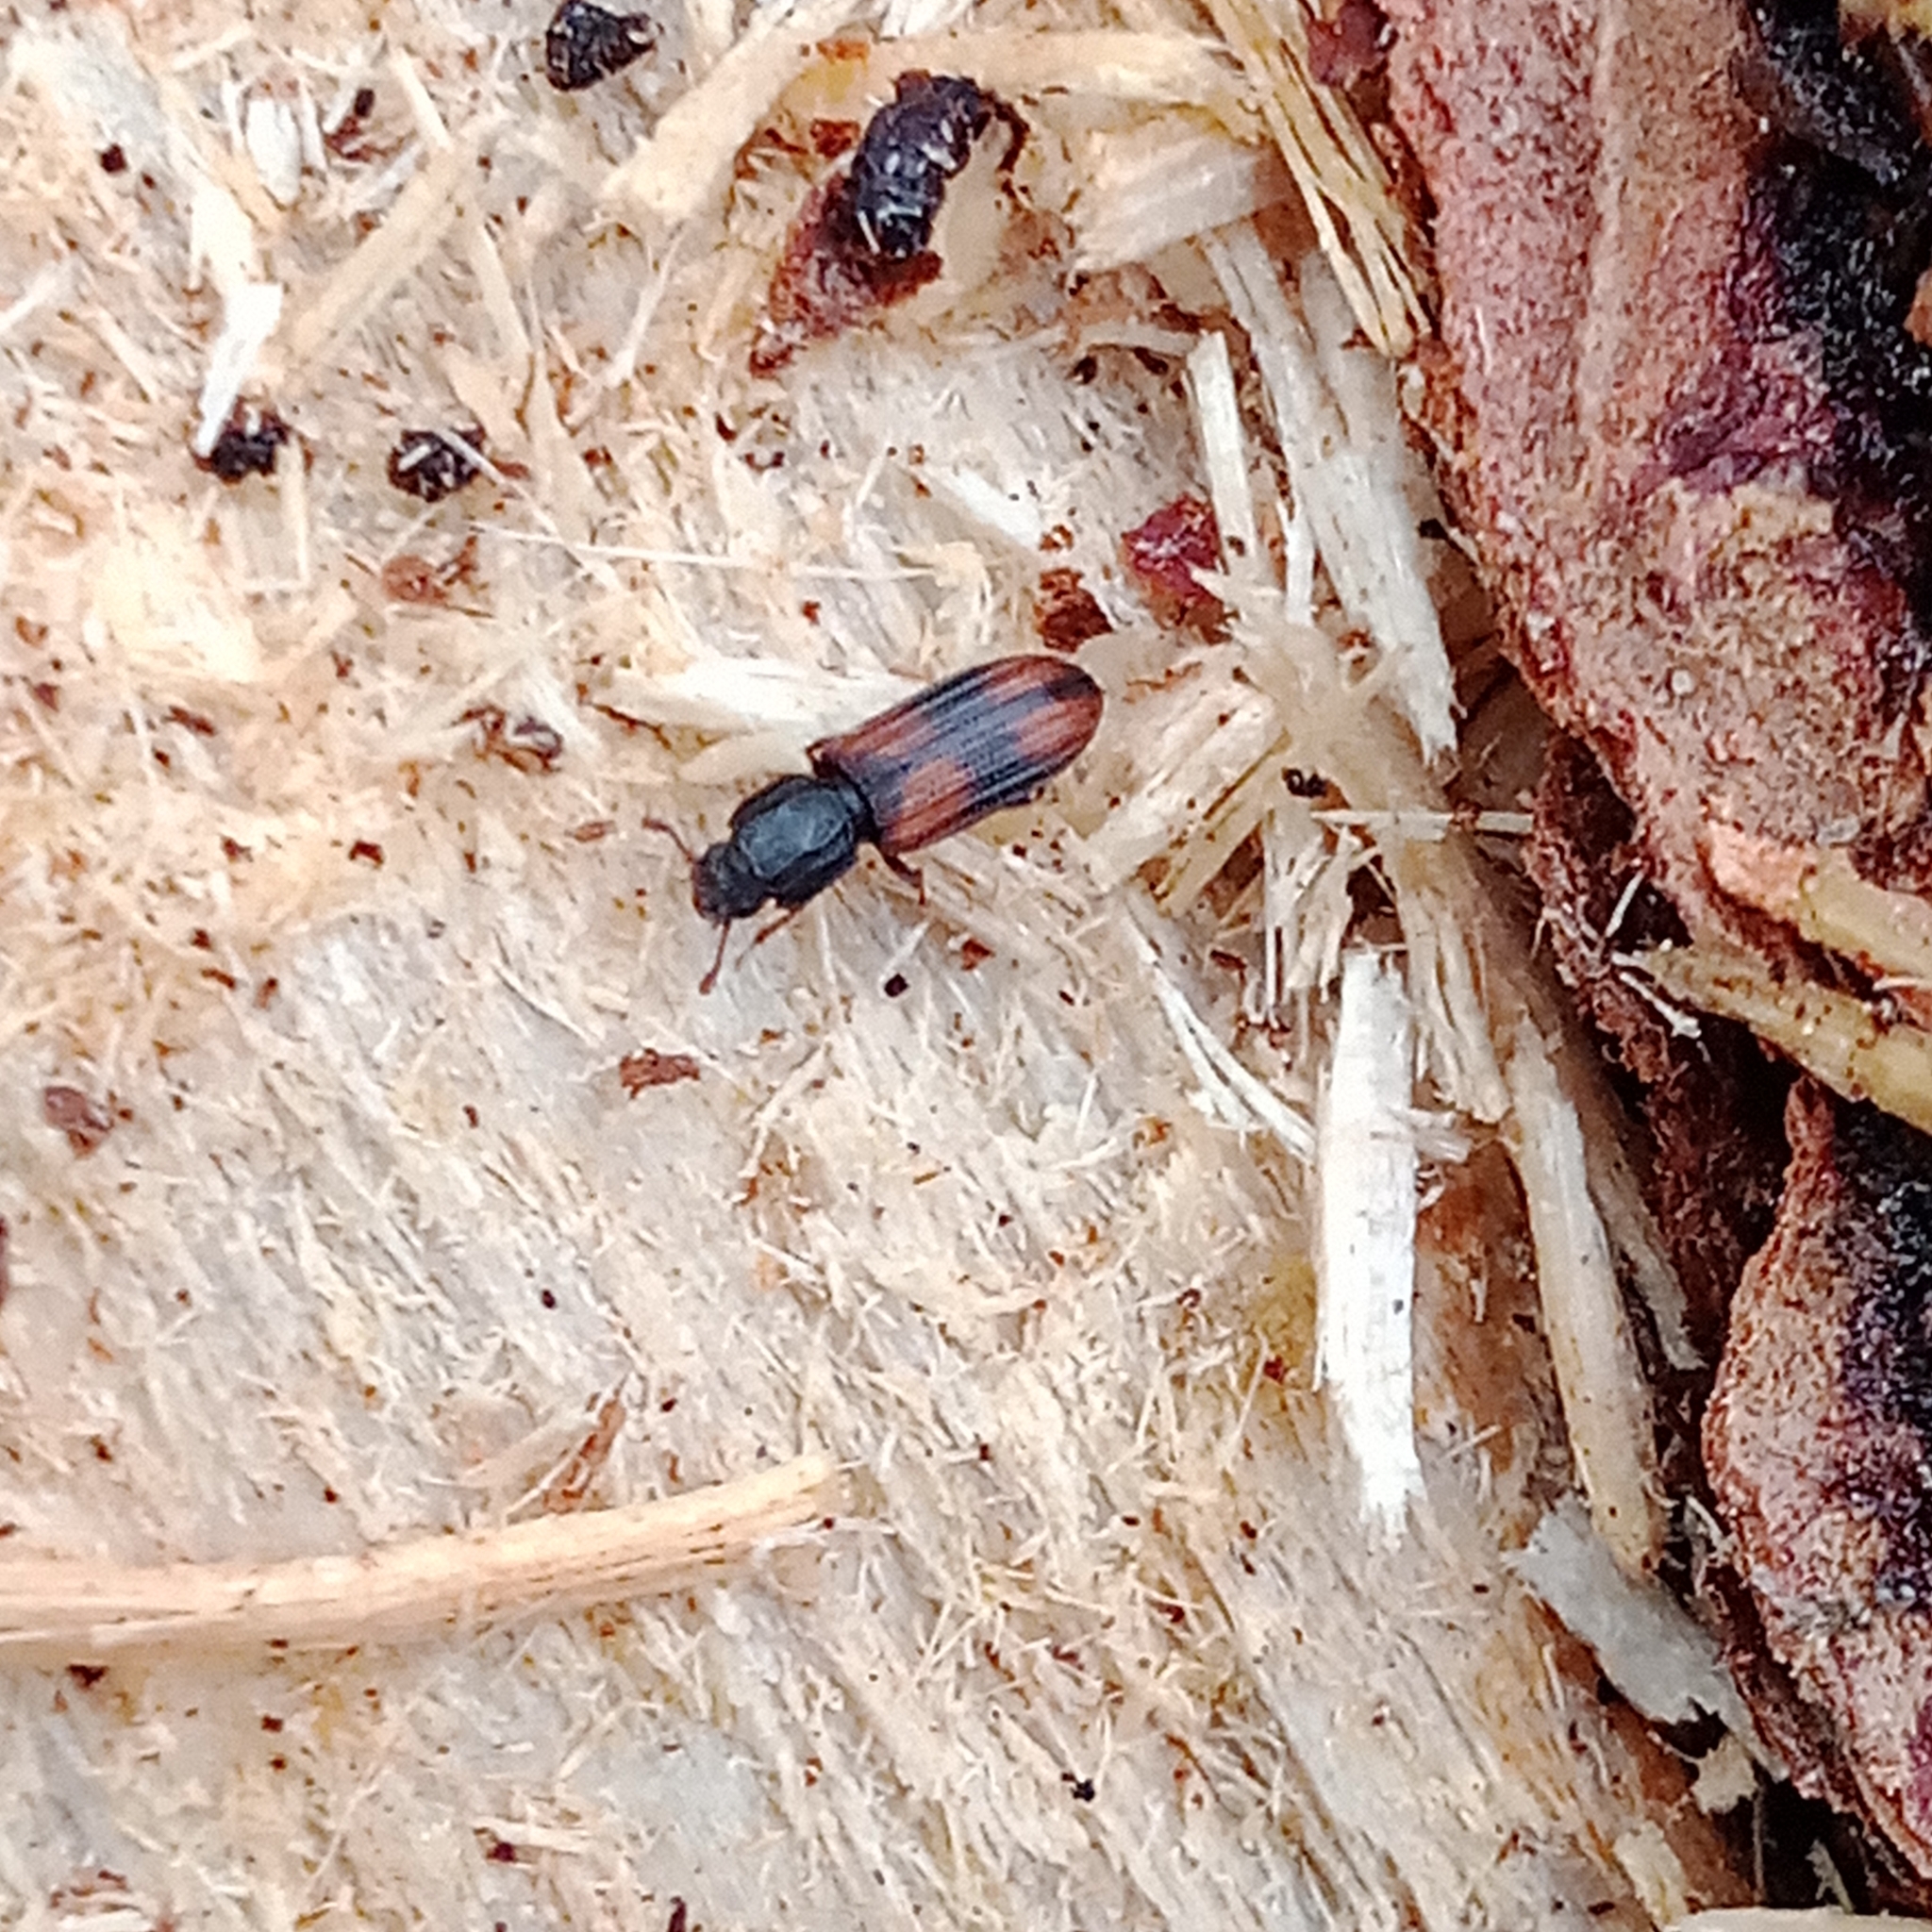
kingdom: Animalia
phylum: Arthropoda
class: Insecta
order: Coleoptera
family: Zopheridae
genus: Bitoma
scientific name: Bitoma crenata
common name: Bark beetle
